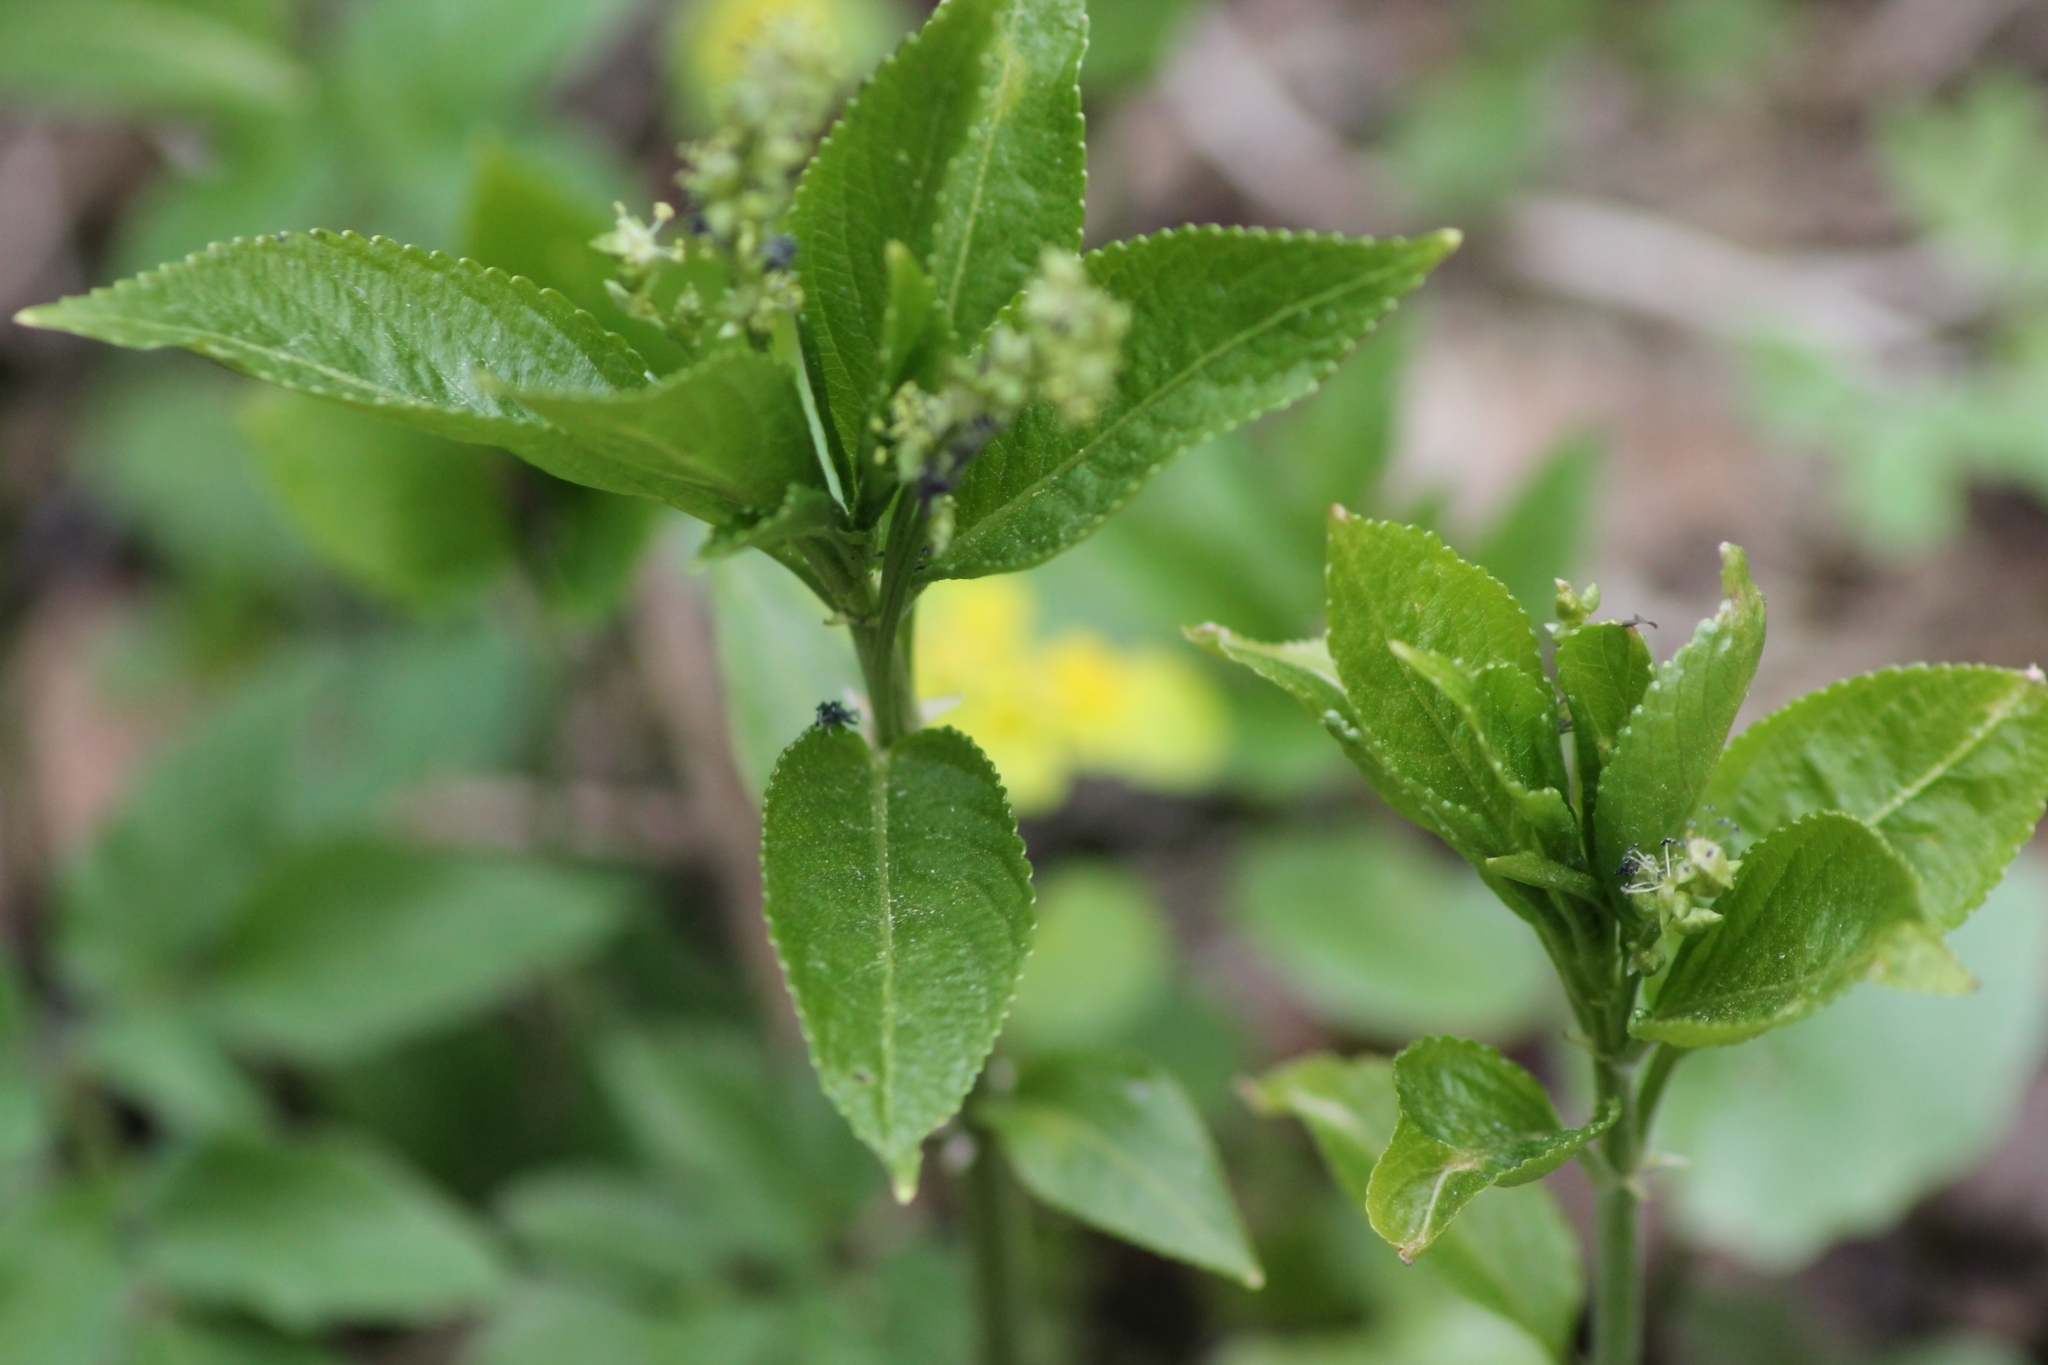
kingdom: Plantae
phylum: Tracheophyta
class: Magnoliopsida
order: Malpighiales
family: Euphorbiaceae
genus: Mercurialis
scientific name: Mercurialis perennis
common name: Dog mercury
